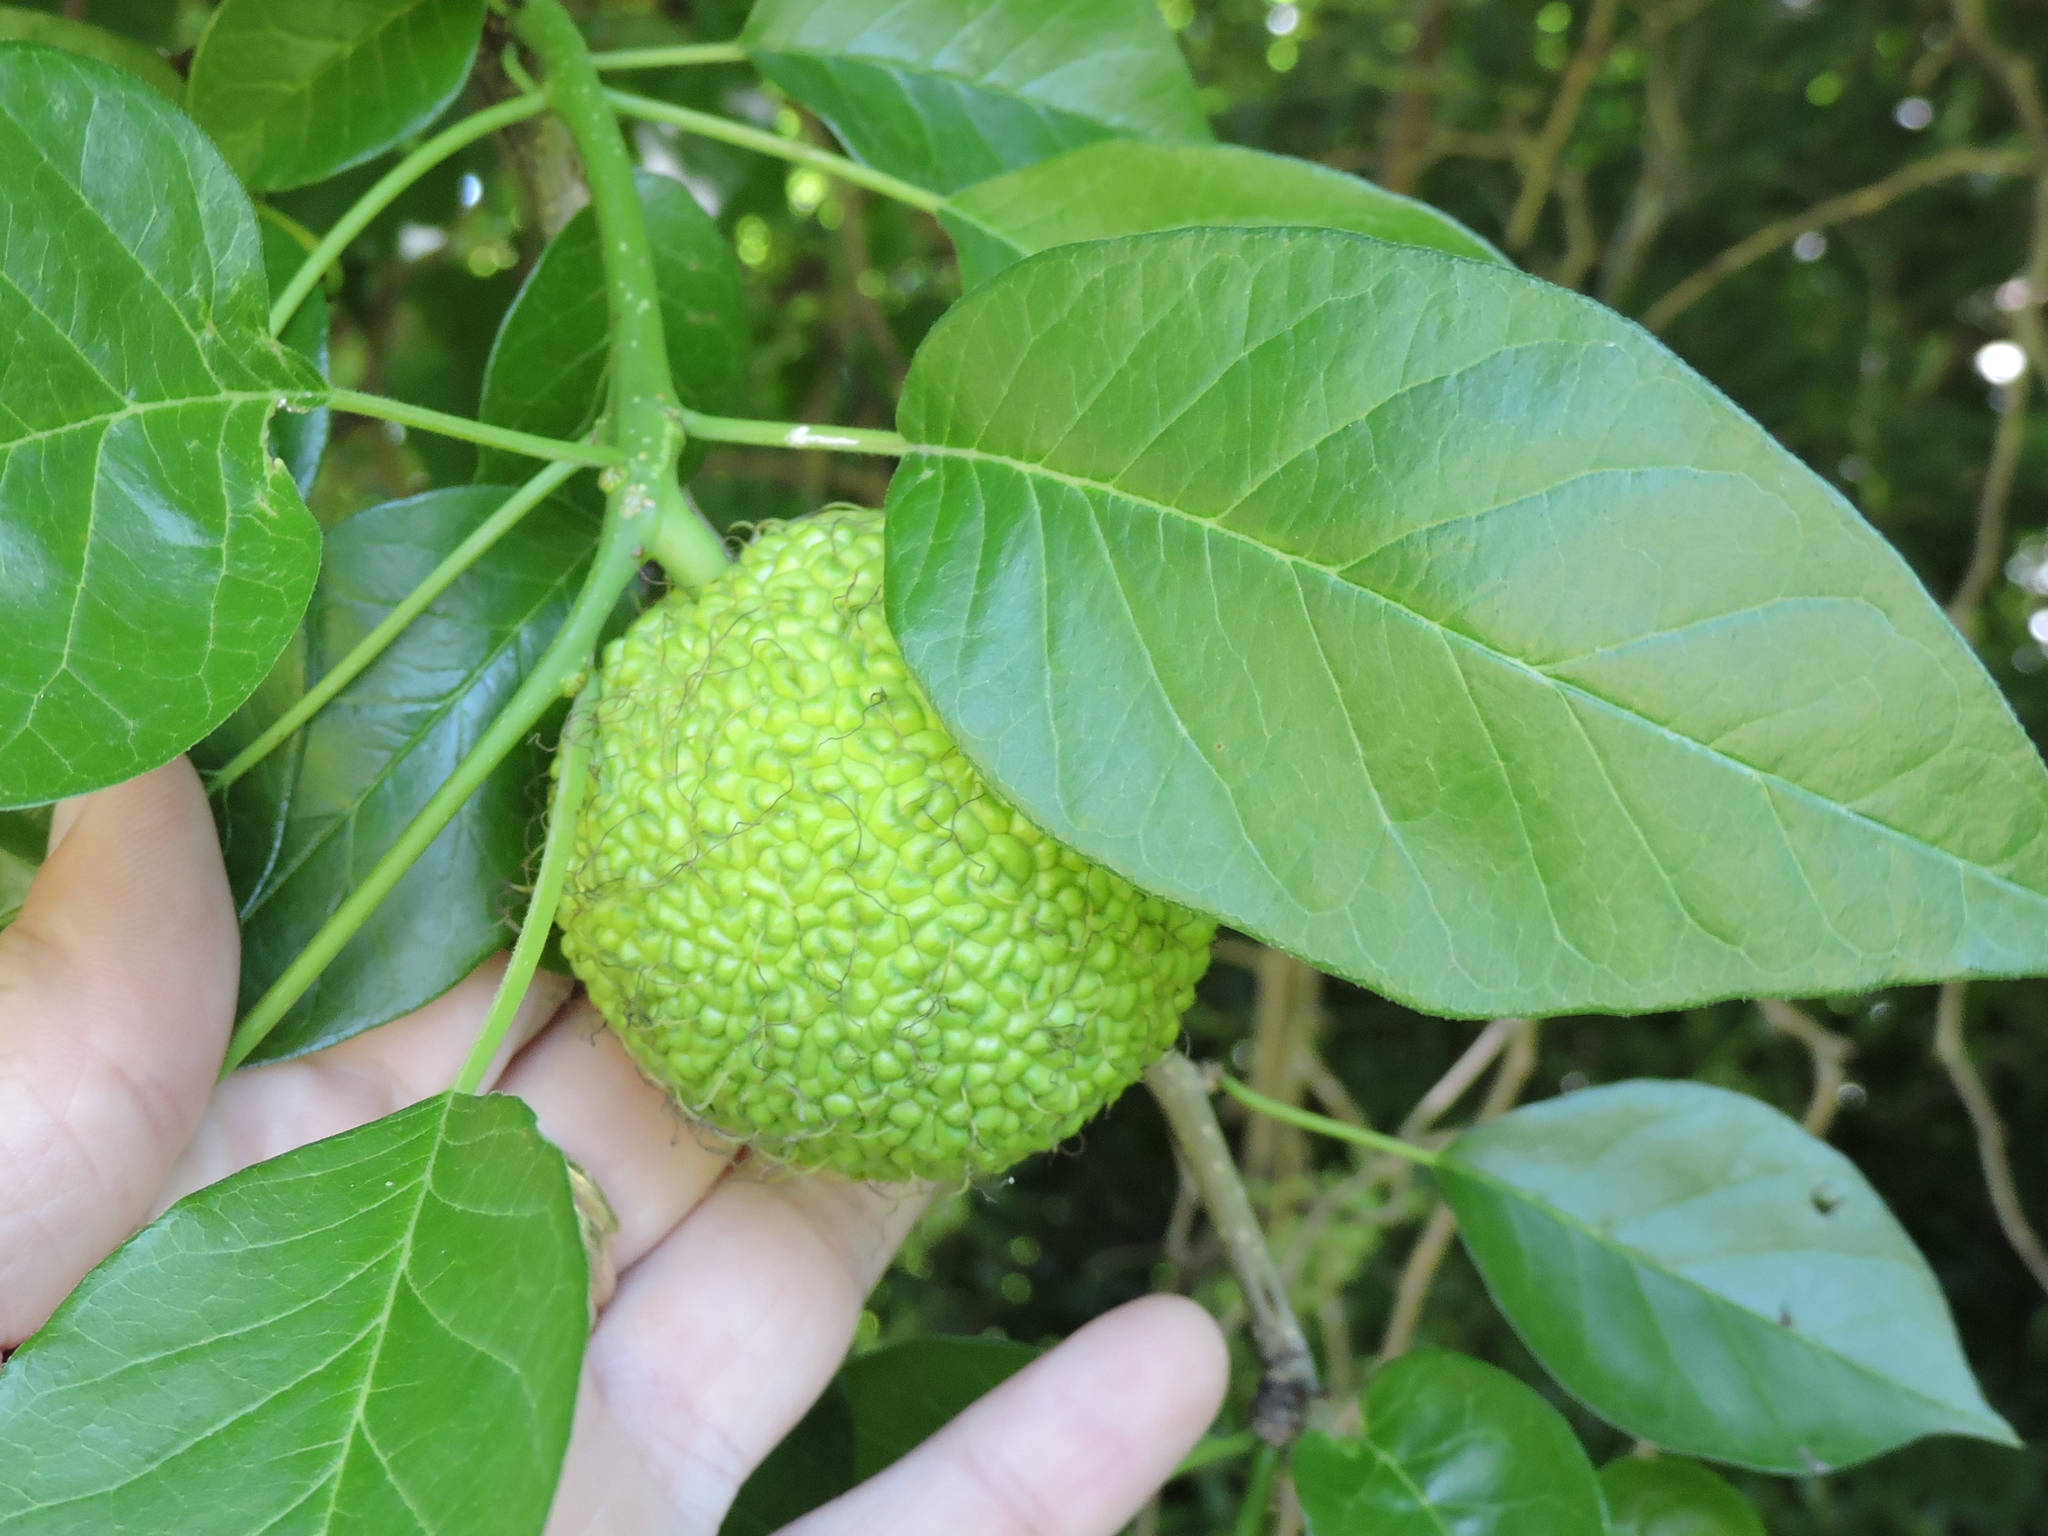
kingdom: Plantae
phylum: Tracheophyta
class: Magnoliopsida
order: Rosales
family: Moraceae
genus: Maclura
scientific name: Maclura pomifera
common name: Osage-orange
